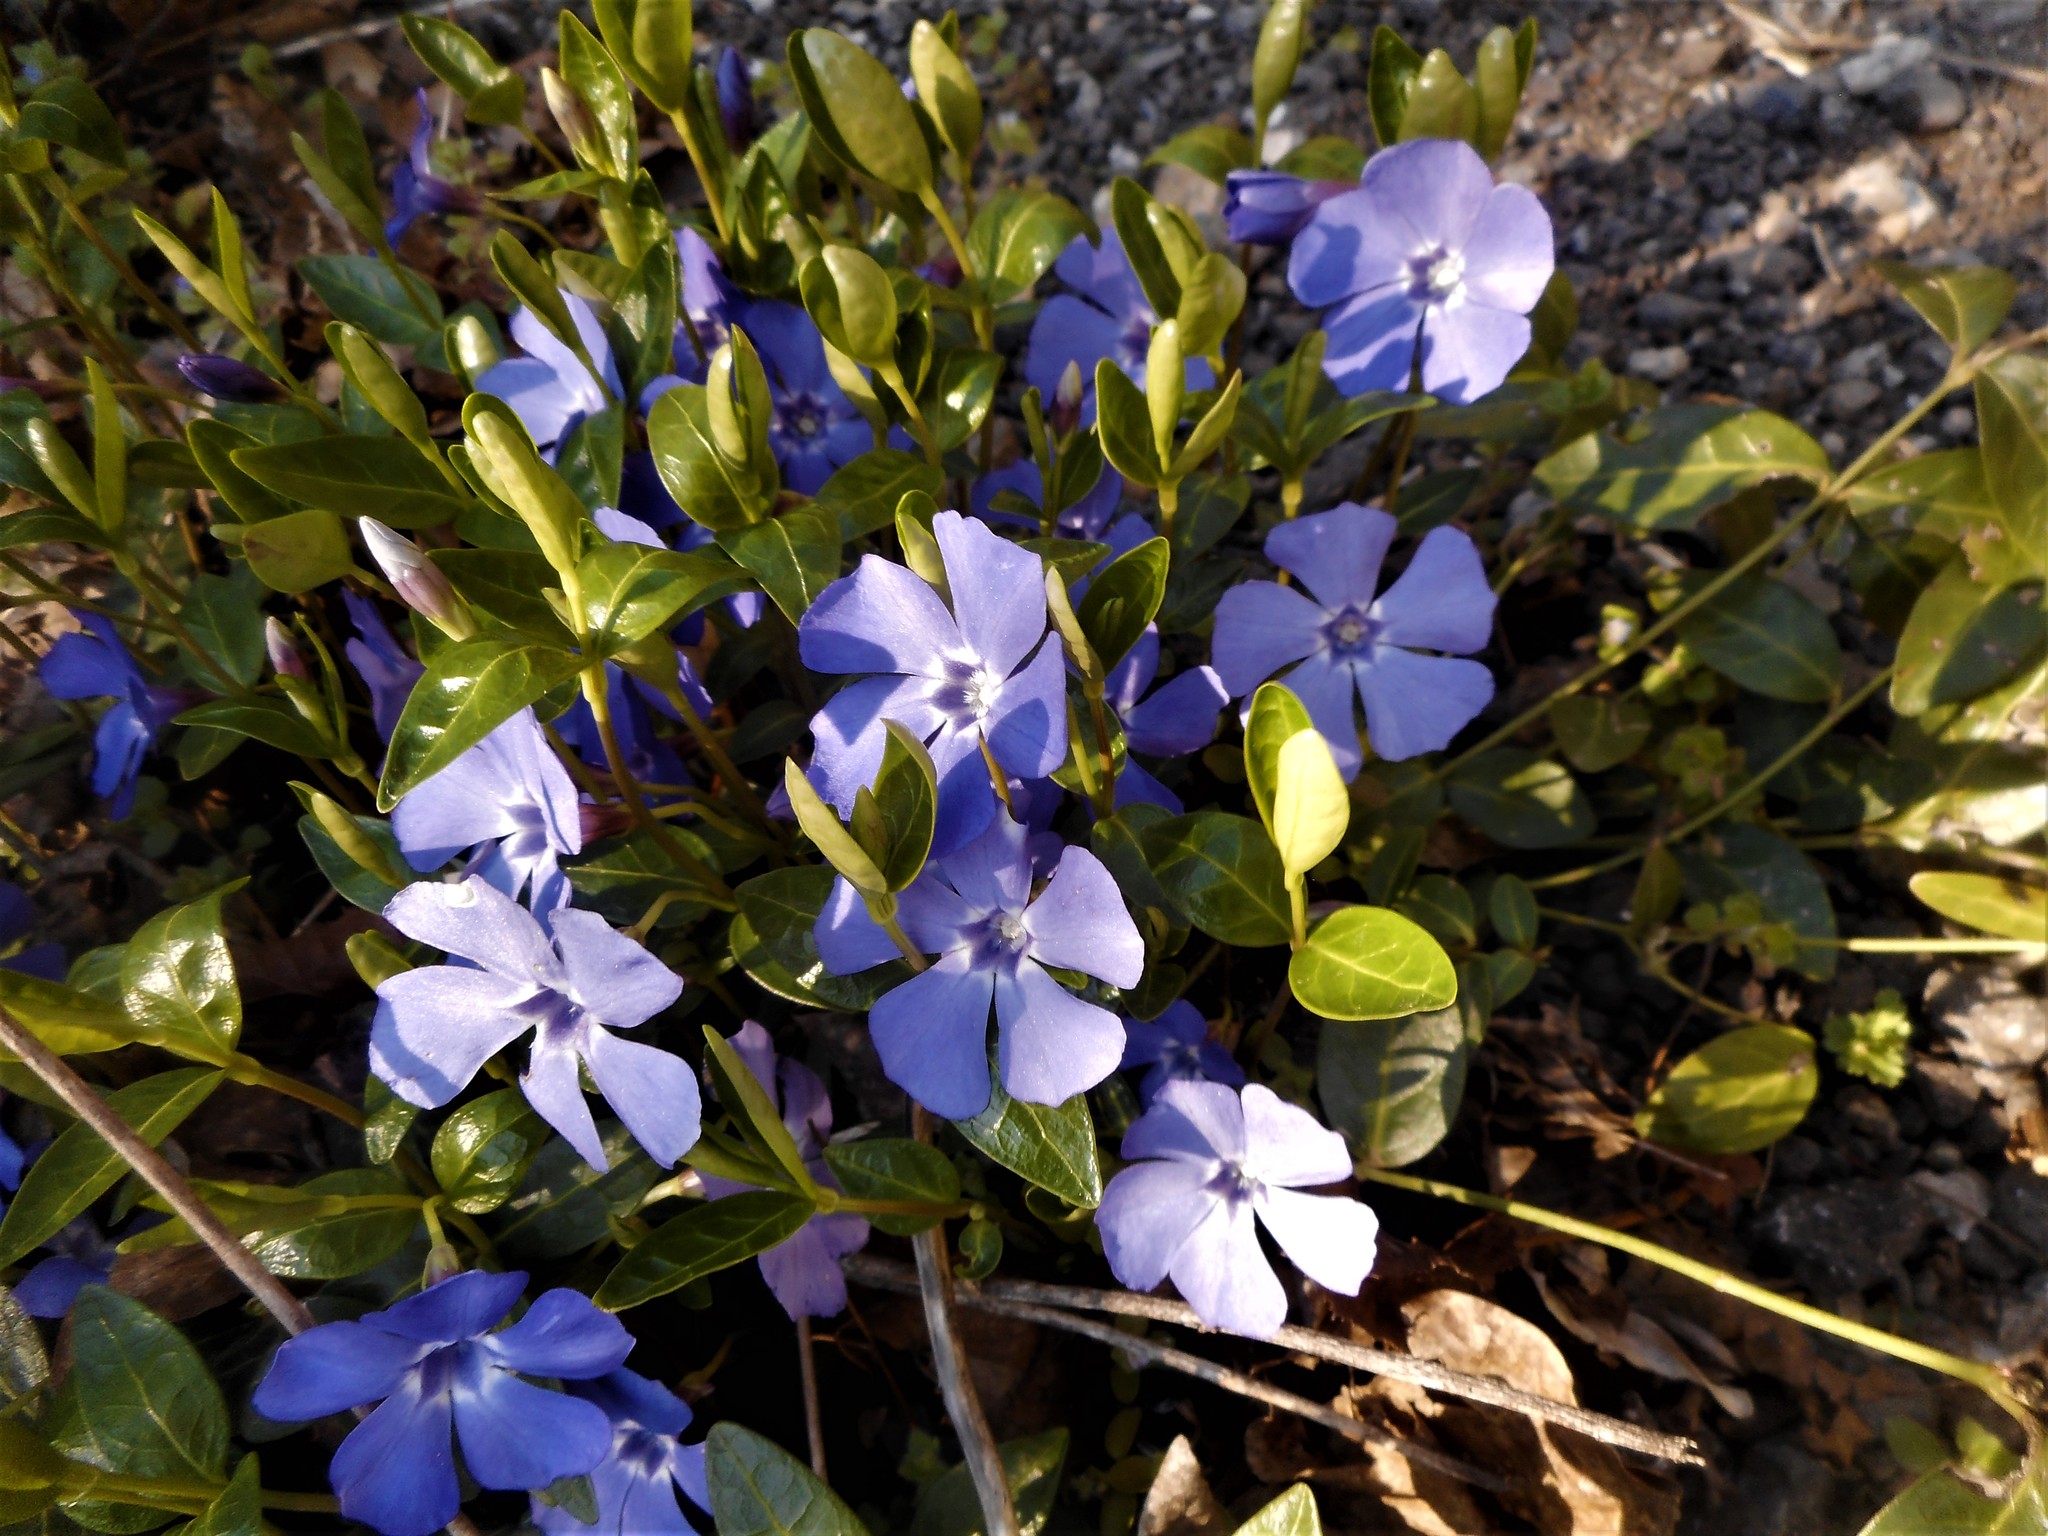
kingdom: Plantae
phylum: Tracheophyta
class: Magnoliopsida
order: Gentianales
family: Apocynaceae
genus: Vinca
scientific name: Vinca minor
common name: Lesser periwinkle
